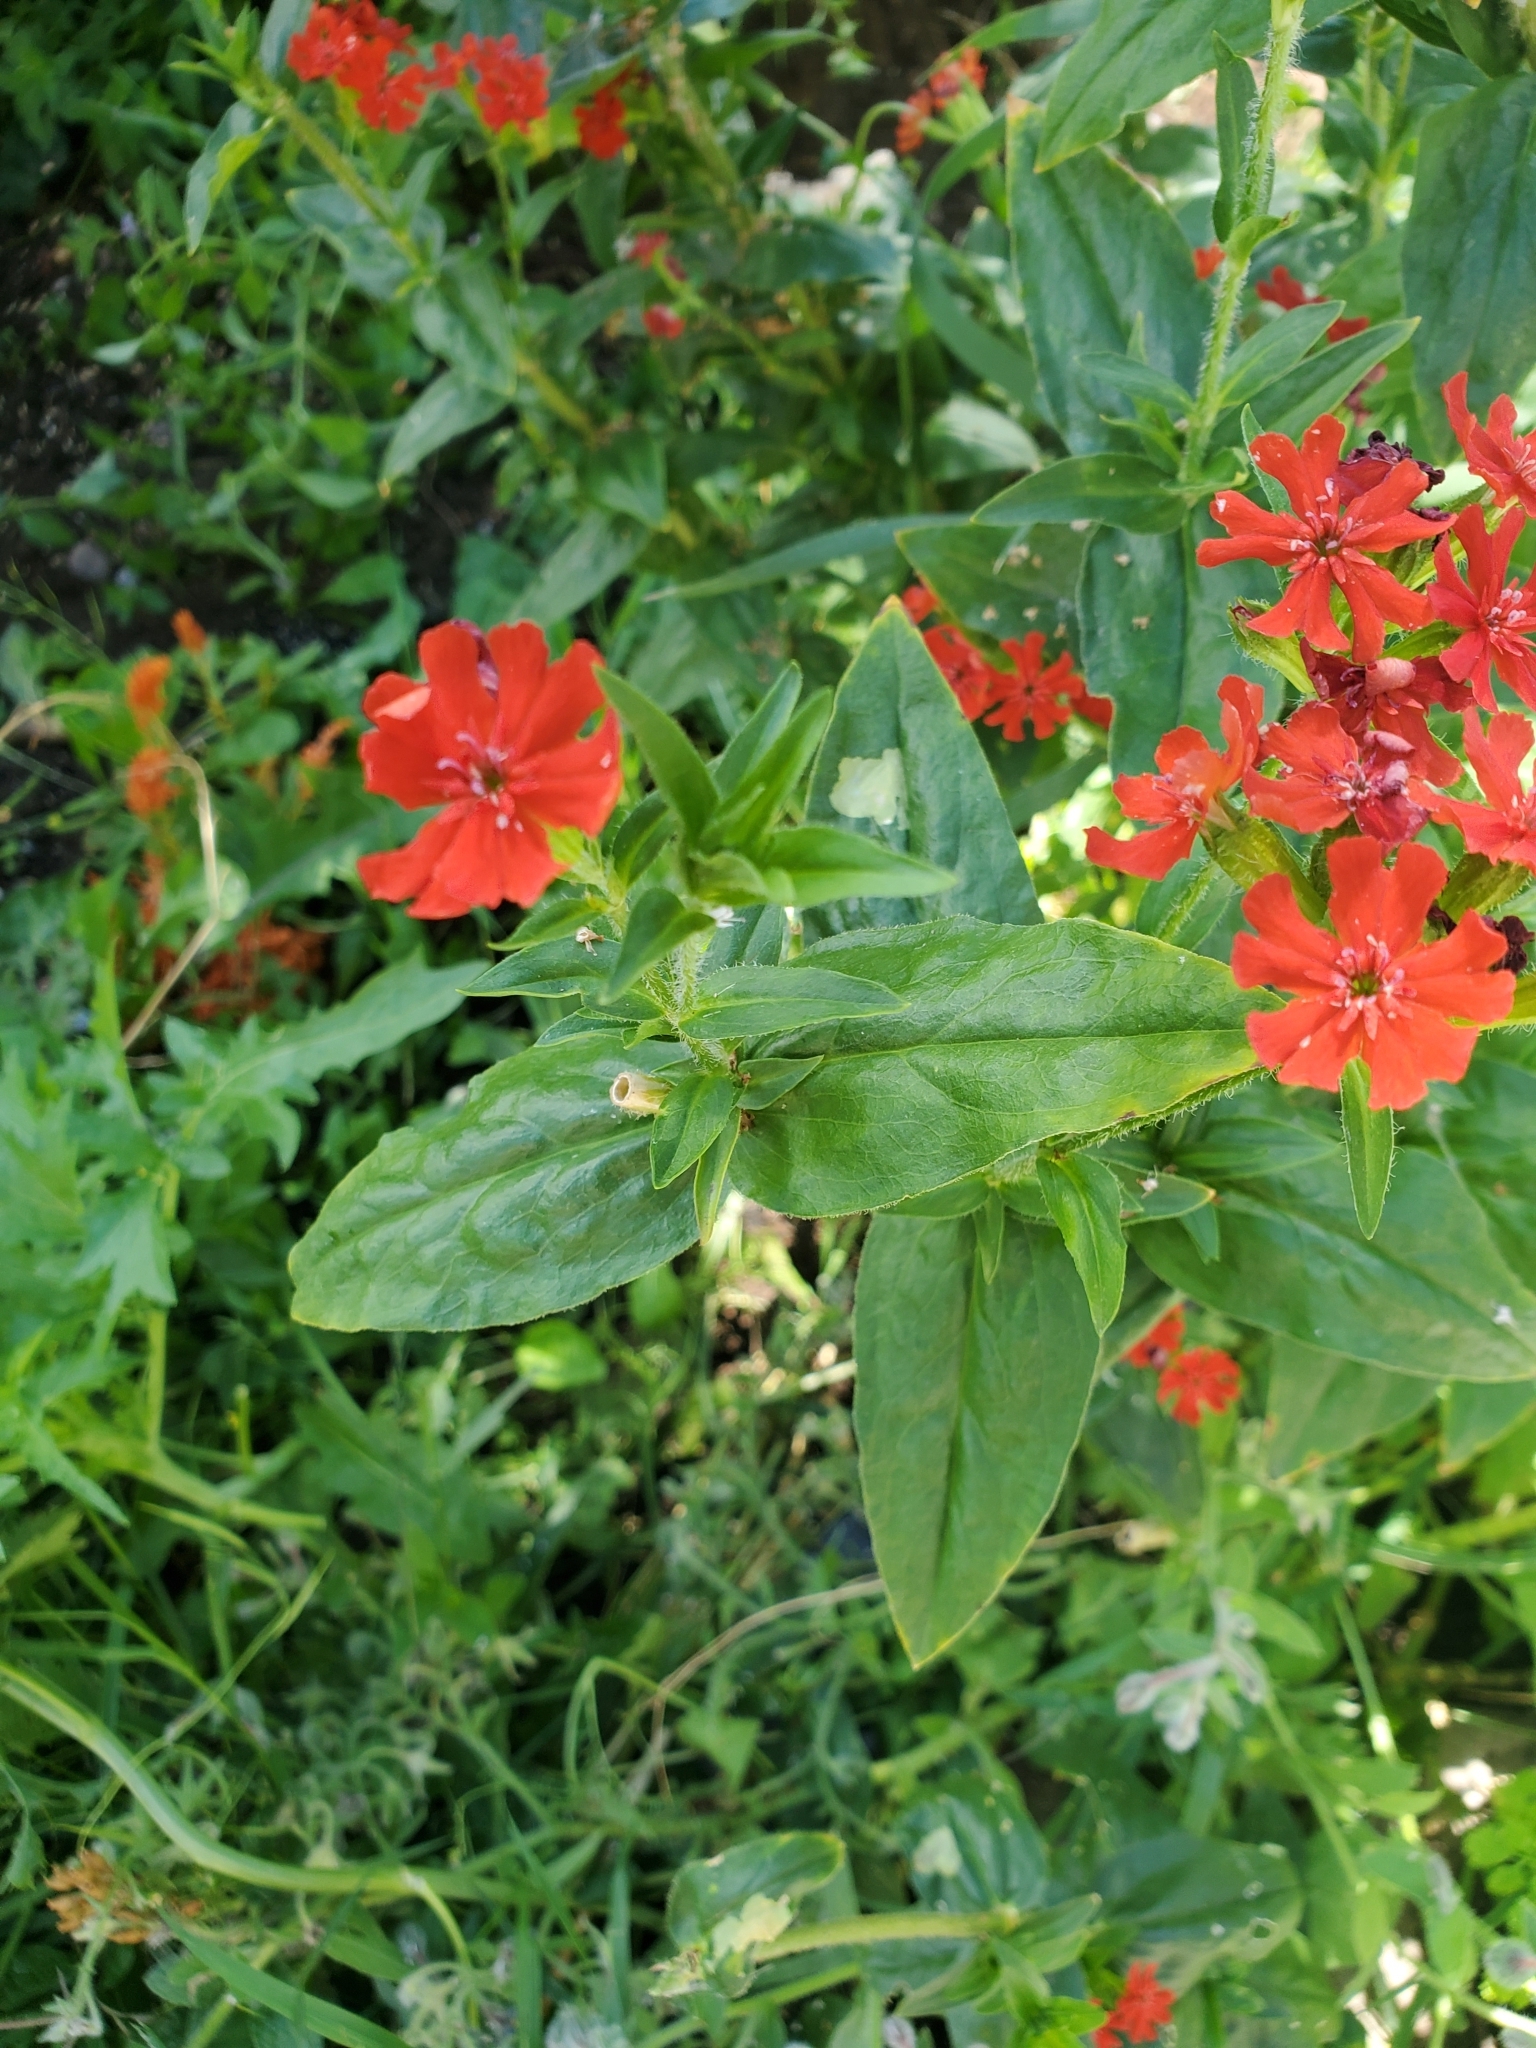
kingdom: Plantae
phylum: Tracheophyta
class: Magnoliopsida
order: Caryophyllales
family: Caryophyllaceae
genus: Silene
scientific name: Silene chalcedonica
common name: Maltese-cross
